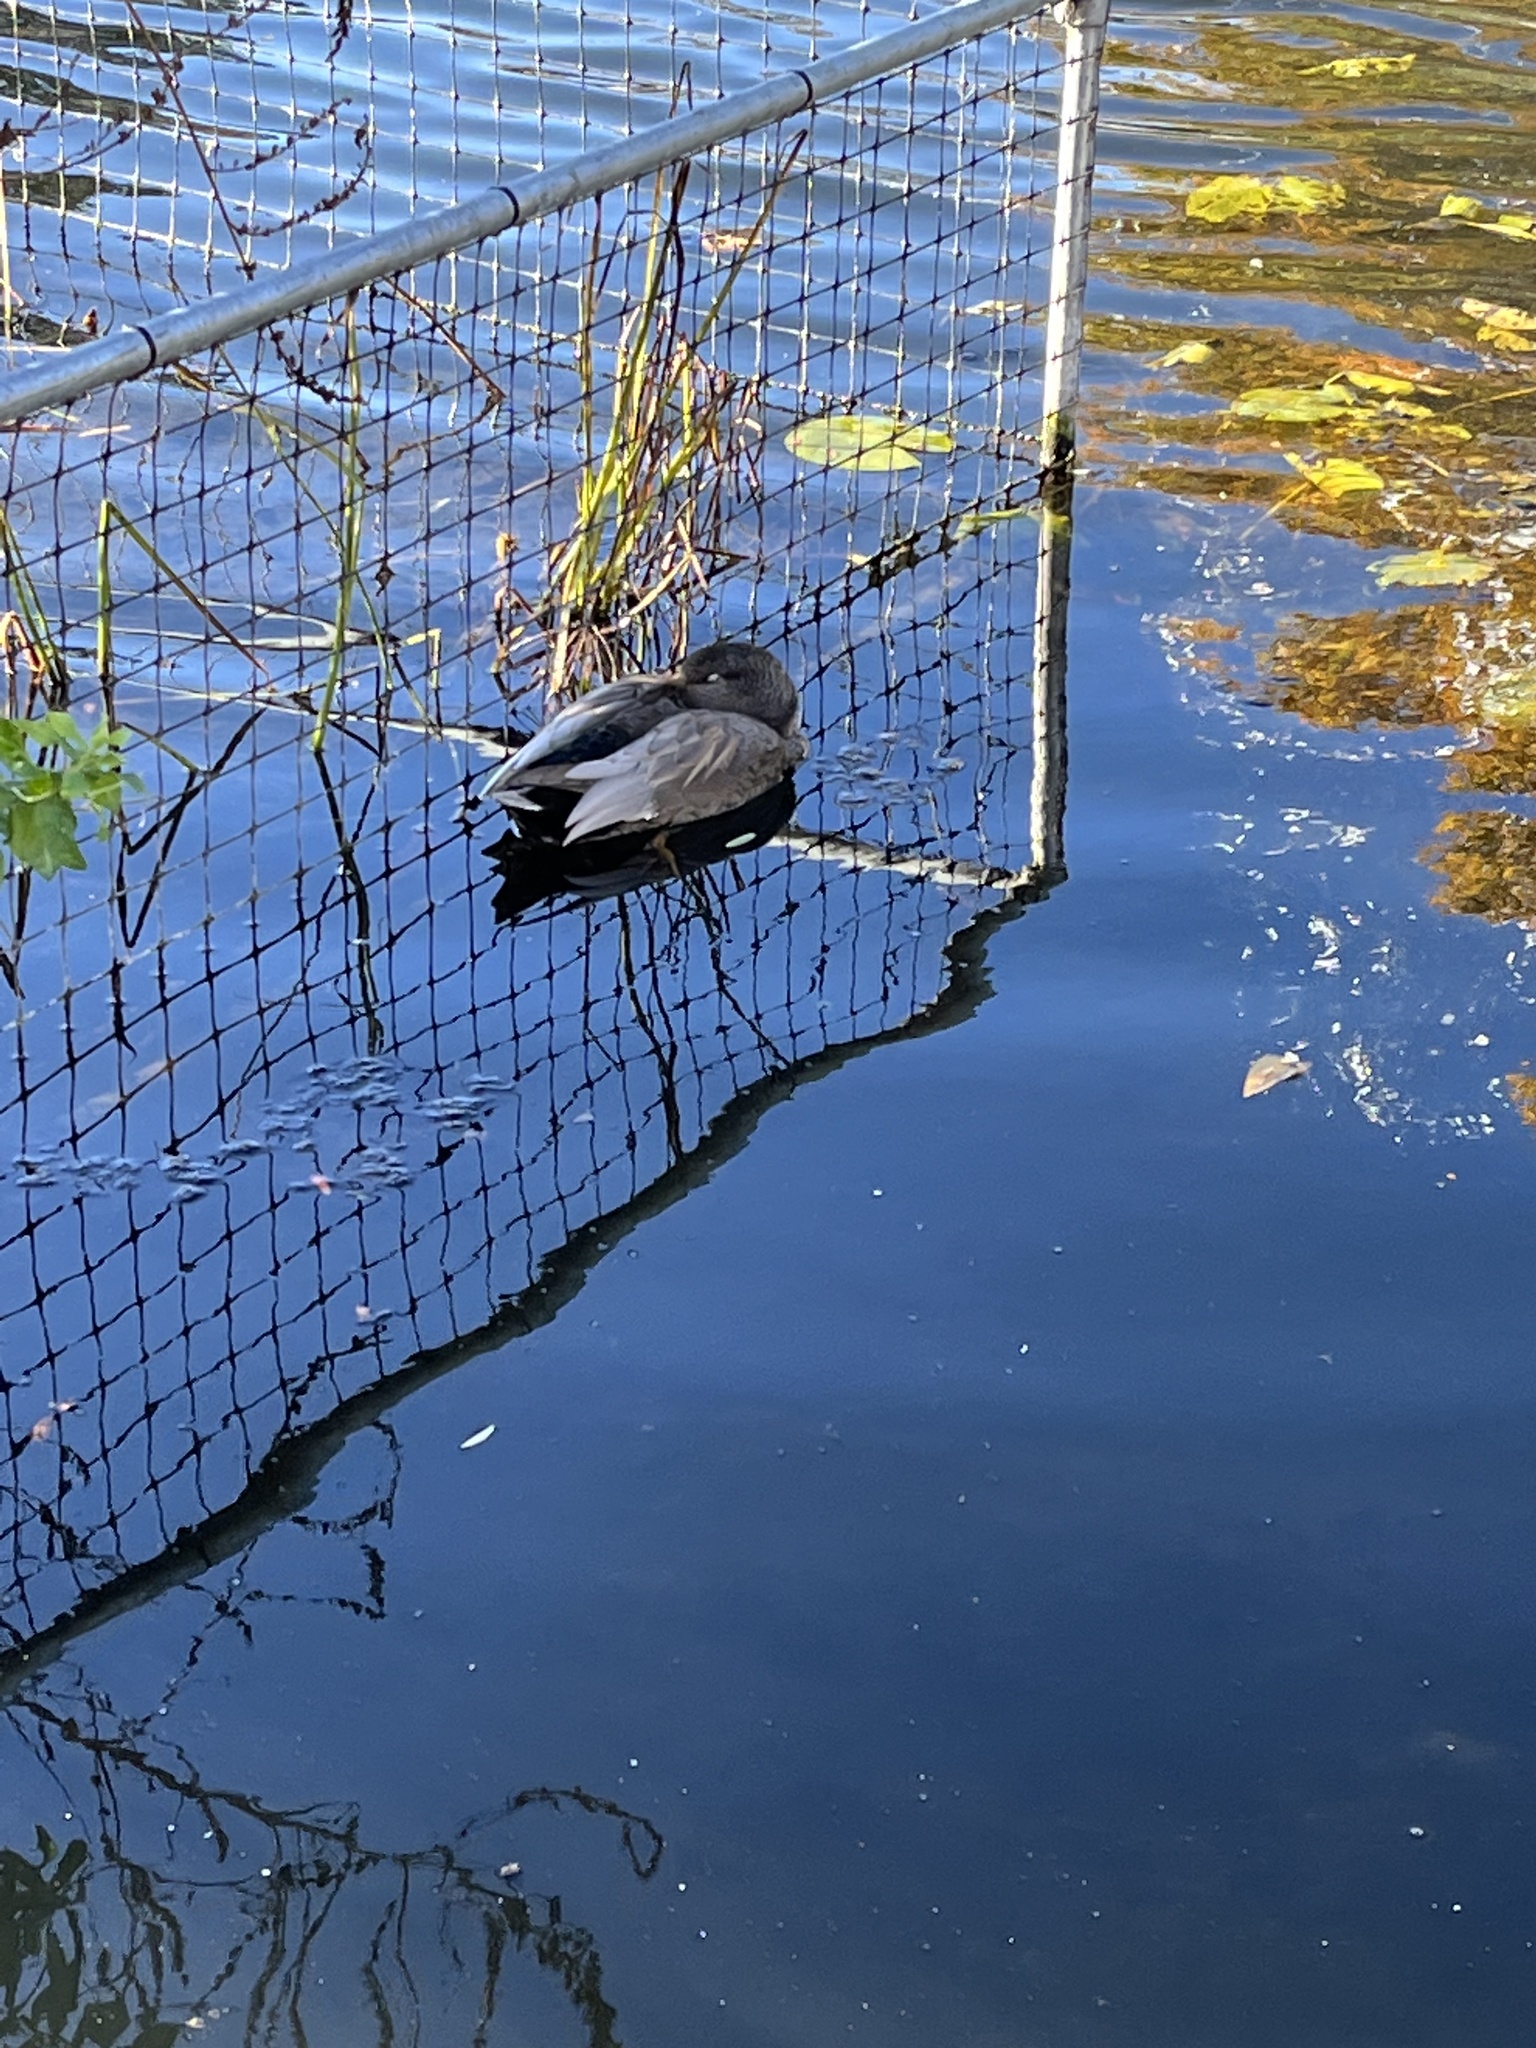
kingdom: Animalia
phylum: Chordata
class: Aves
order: Anseriformes
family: Anatidae
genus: Mareca
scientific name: Mareca strepera
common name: Gadwall
